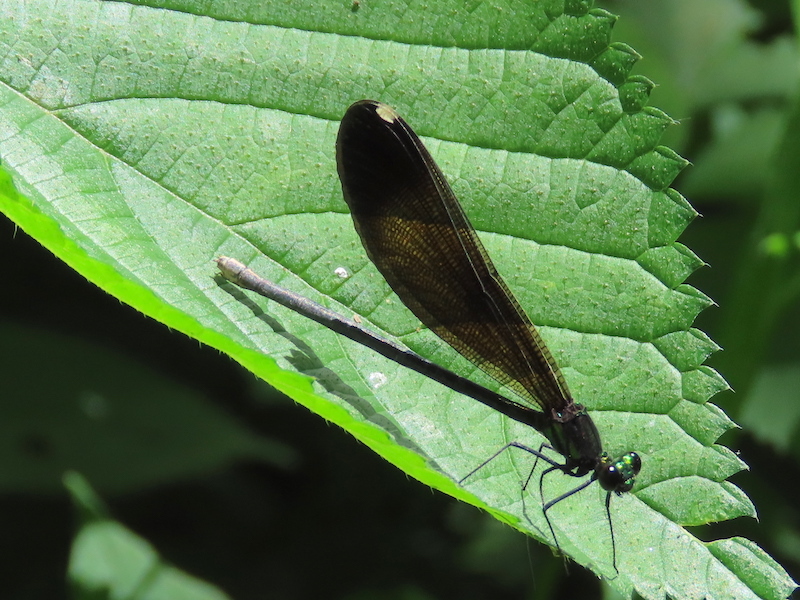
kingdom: Animalia
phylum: Arthropoda
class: Insecta
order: Odonata
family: Calopterygidae
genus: Calopteryx
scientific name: Calopteryx maculata
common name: Ebony jewelwing
